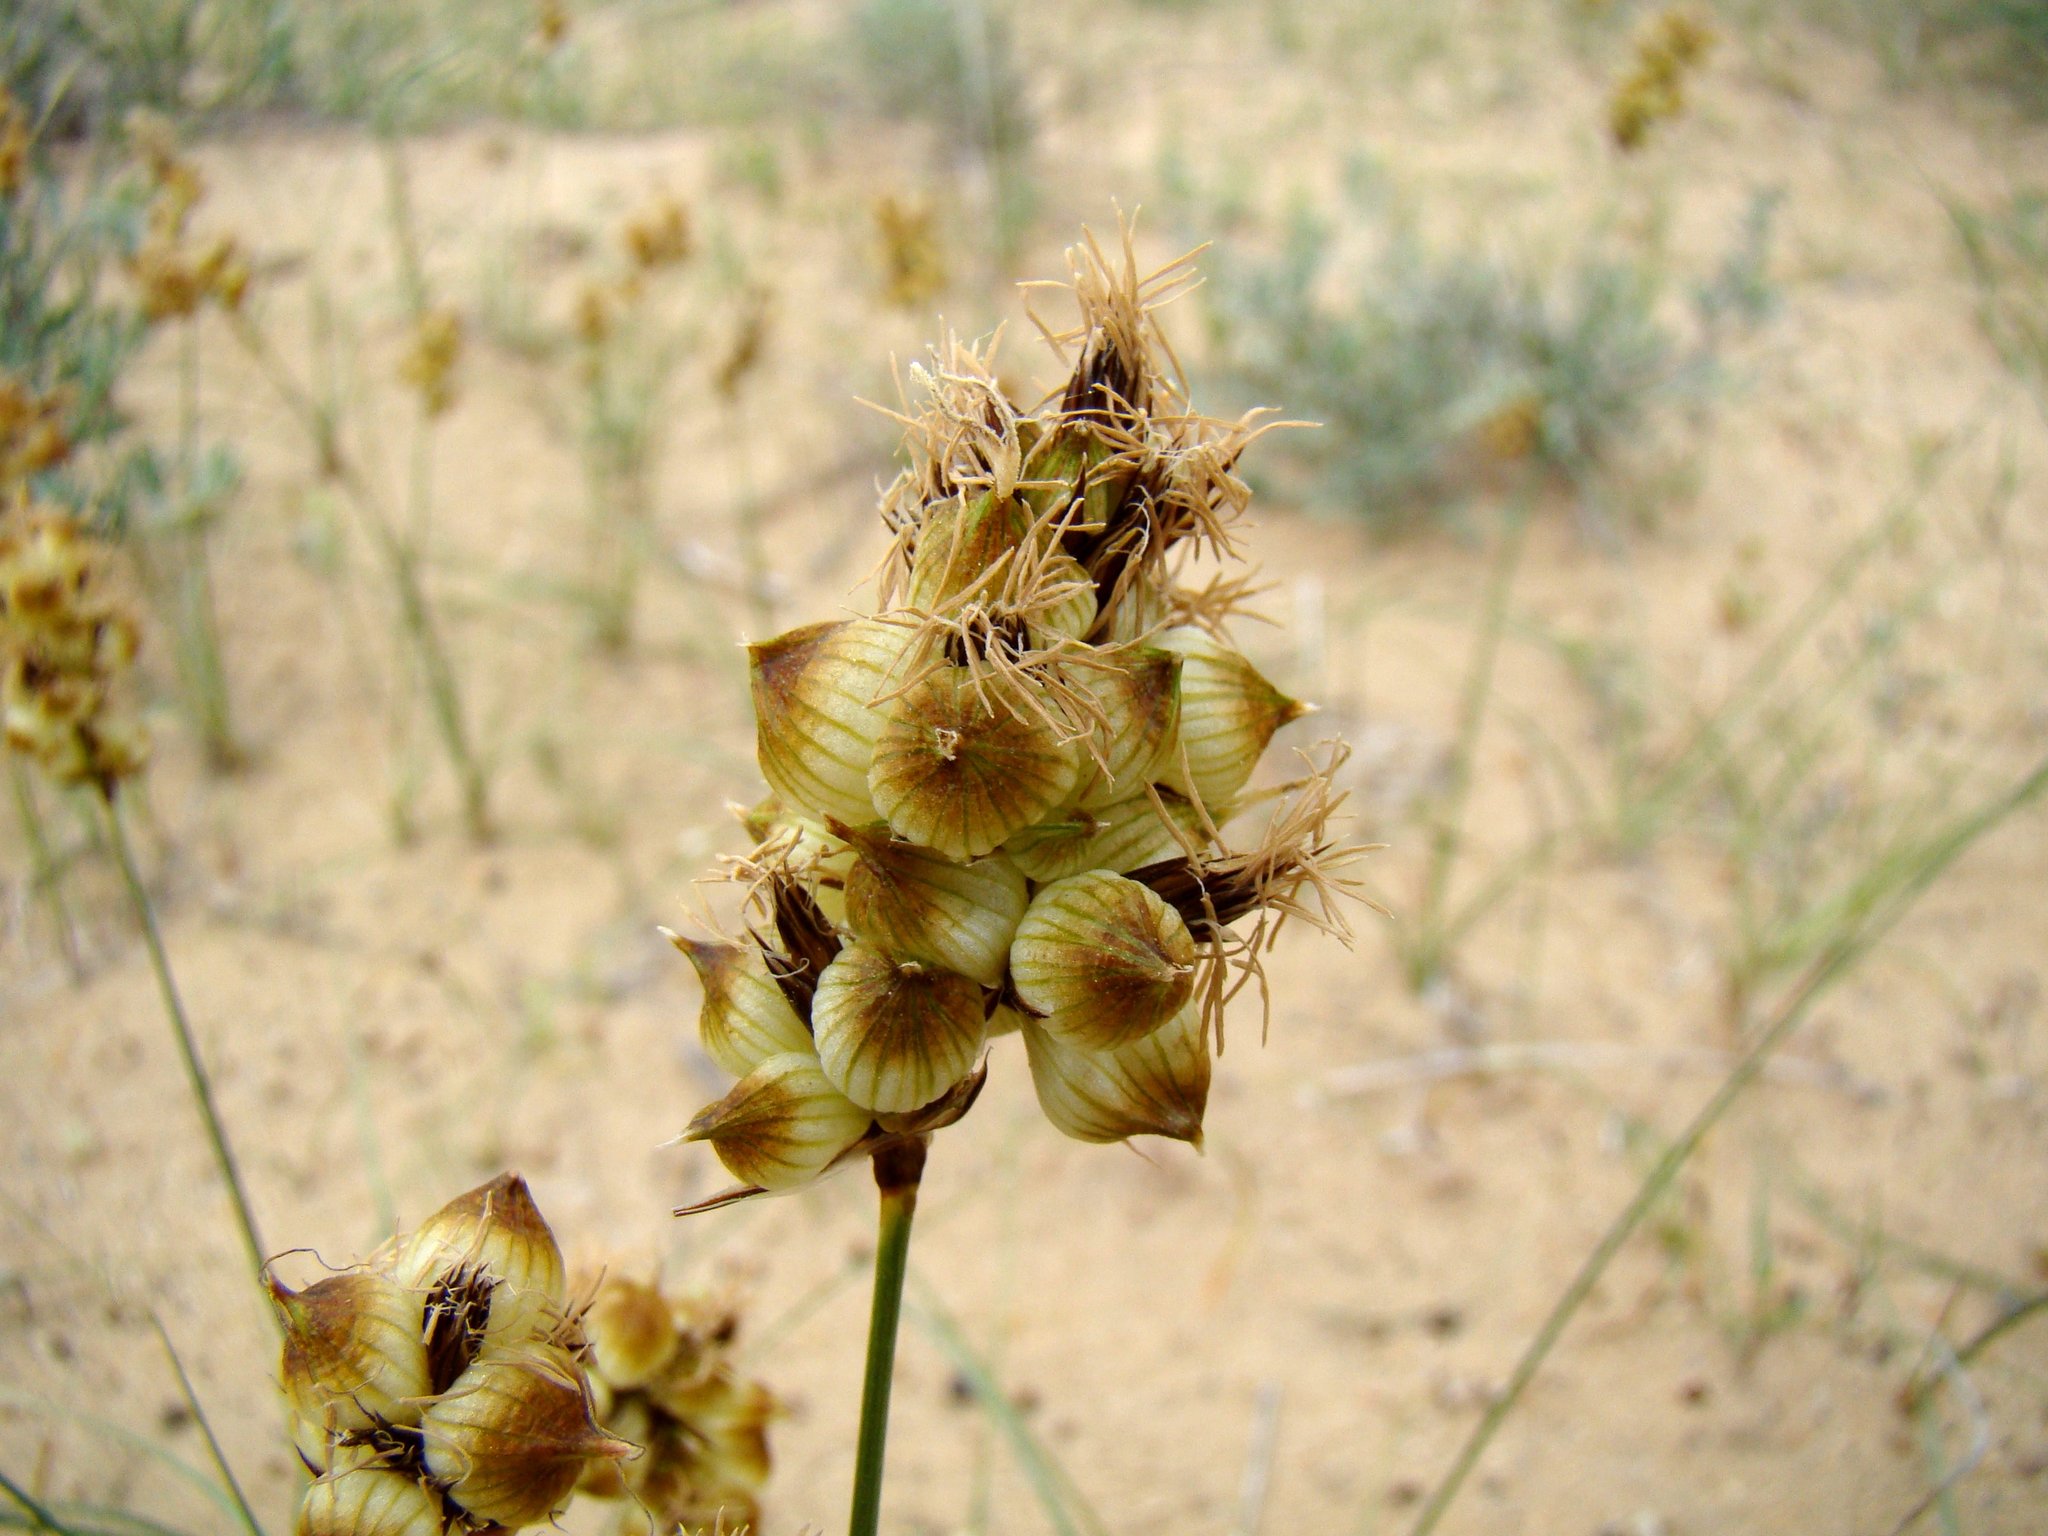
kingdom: Plantae
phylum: Tracheophyta
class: Liliopsida
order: Poales
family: Cyperaceae
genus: Carex
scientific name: Carex physodes
